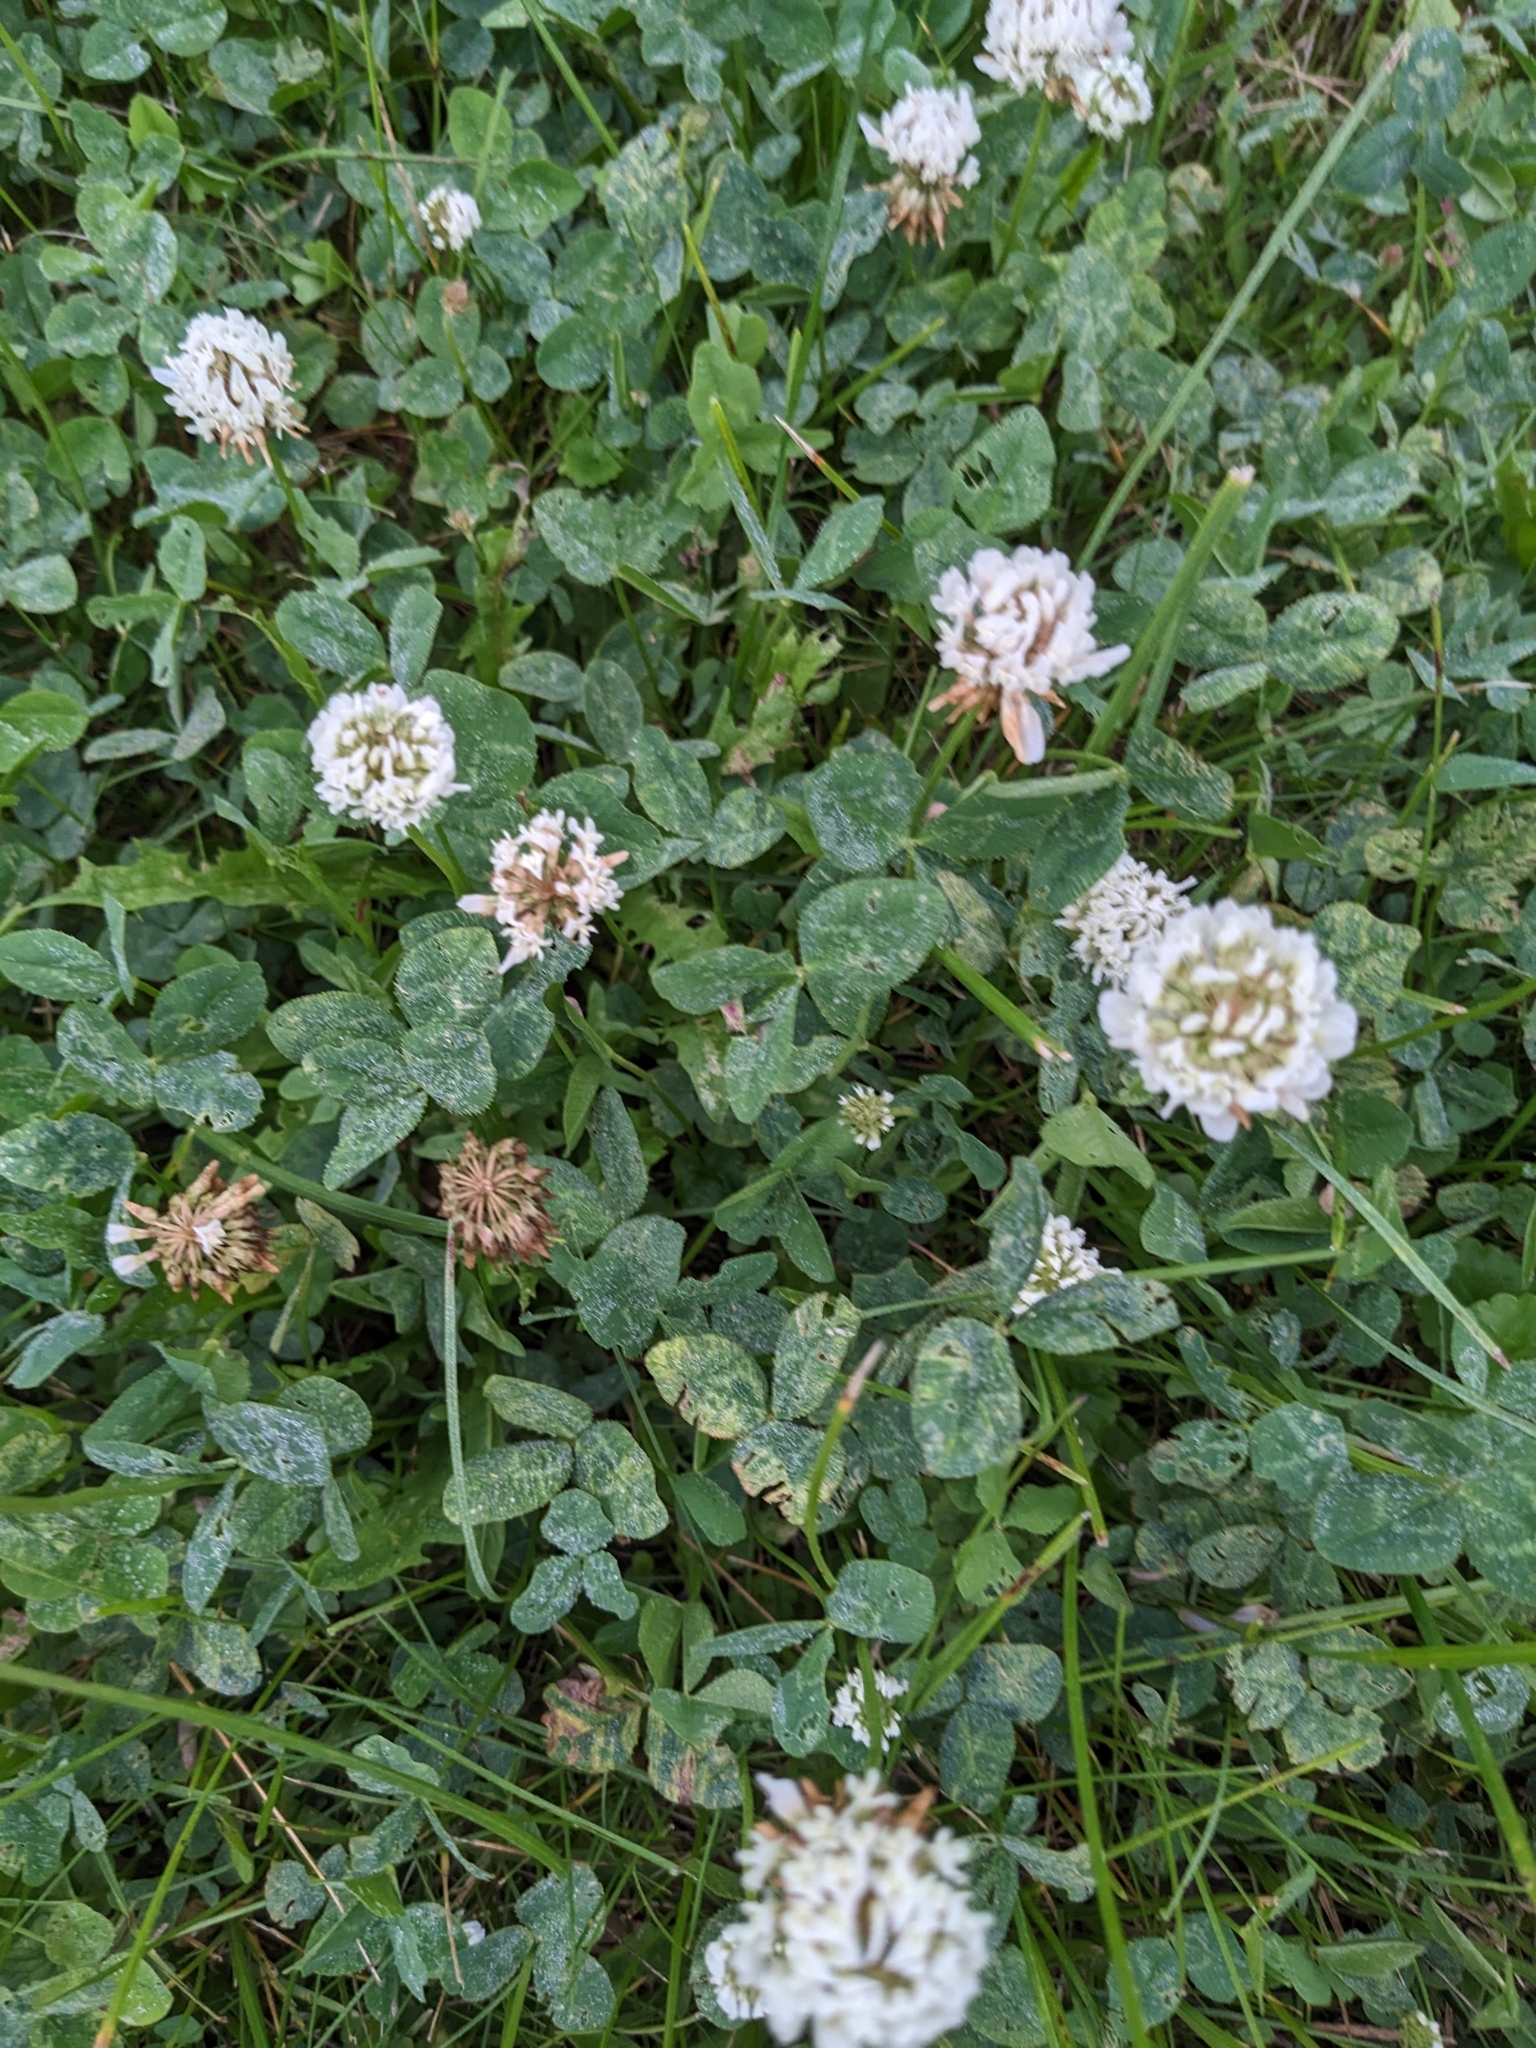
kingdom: Plantae
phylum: Tracheophyta
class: Magnoliopsida
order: Fabales
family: Fabaceae
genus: Trifolium
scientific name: Trifolium repens
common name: White clover
